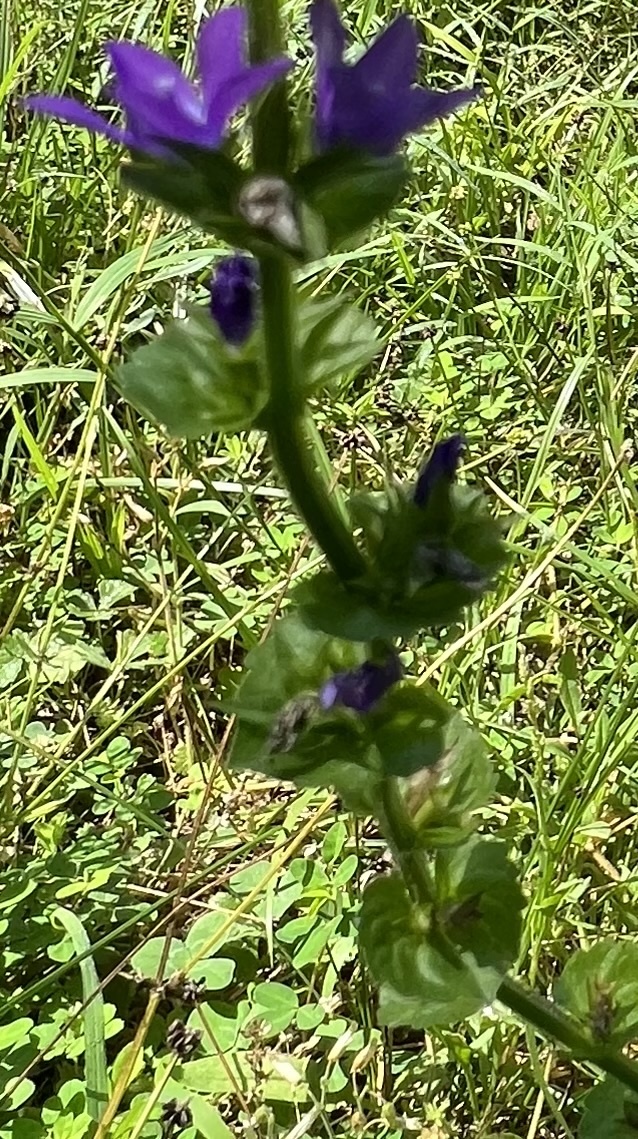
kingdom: Plantae
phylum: Tracheophyta
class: Magnoliopsida
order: Asterales
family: Campanulaceae
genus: Triodanis
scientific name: Triodanis perfoliata
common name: Clasping venus' looking-glass
